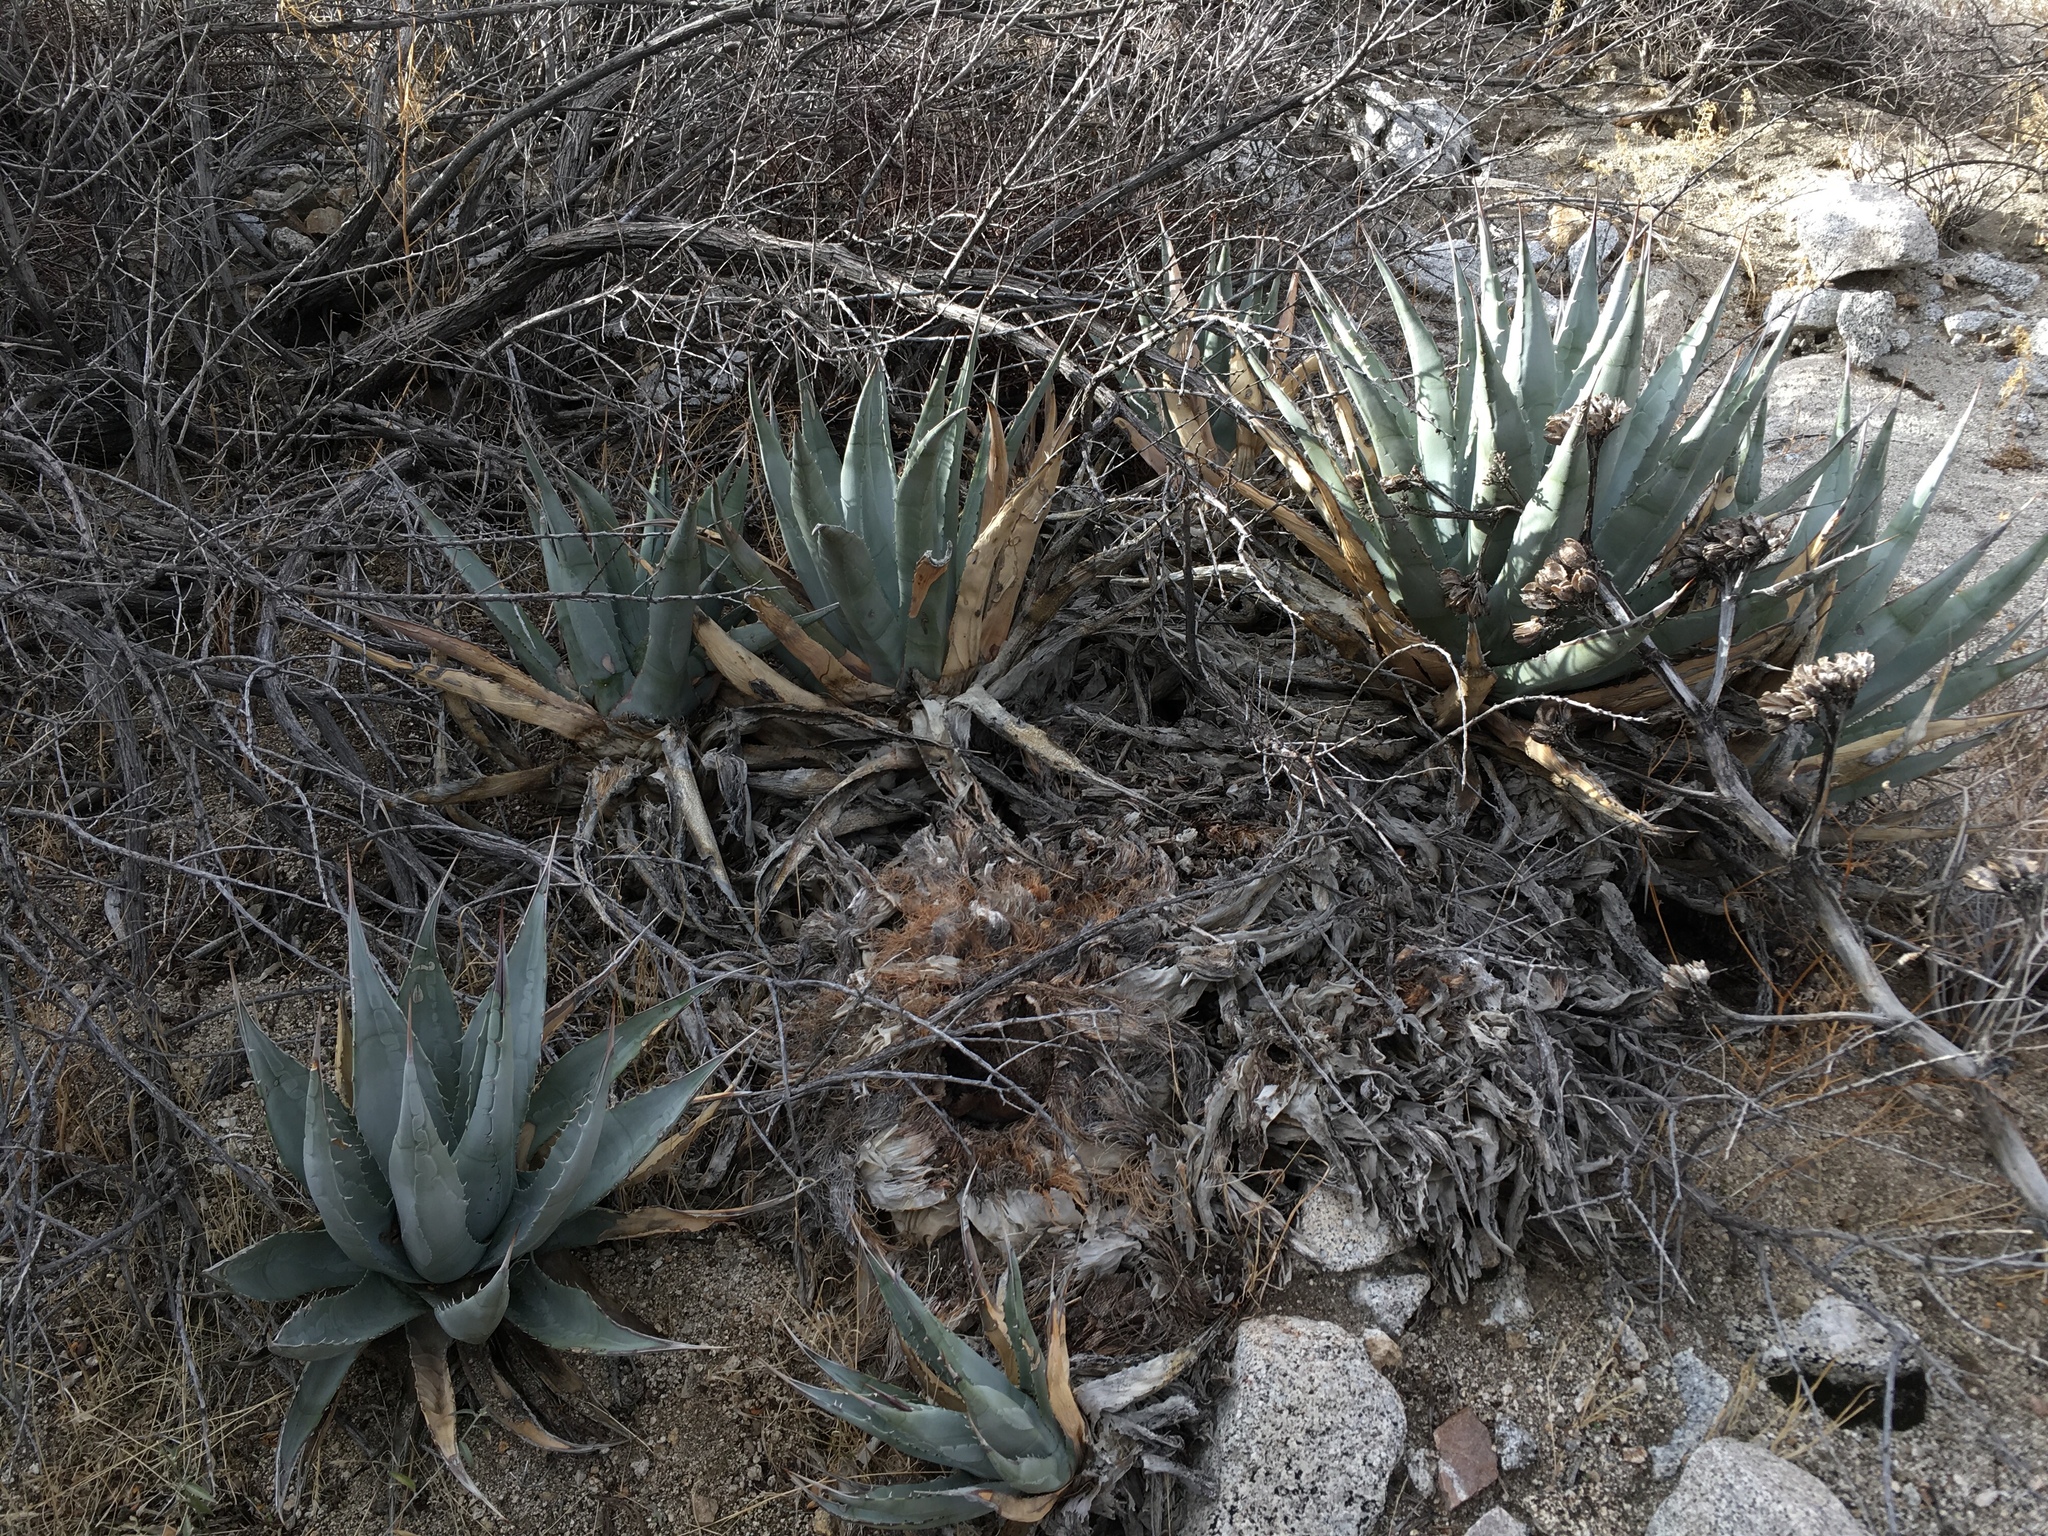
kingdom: Plantae
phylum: Tracheophyta
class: Liliopsida
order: Asparagales
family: Asparagaceae
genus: Agave
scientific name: Agave deserti
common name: Desert agave
